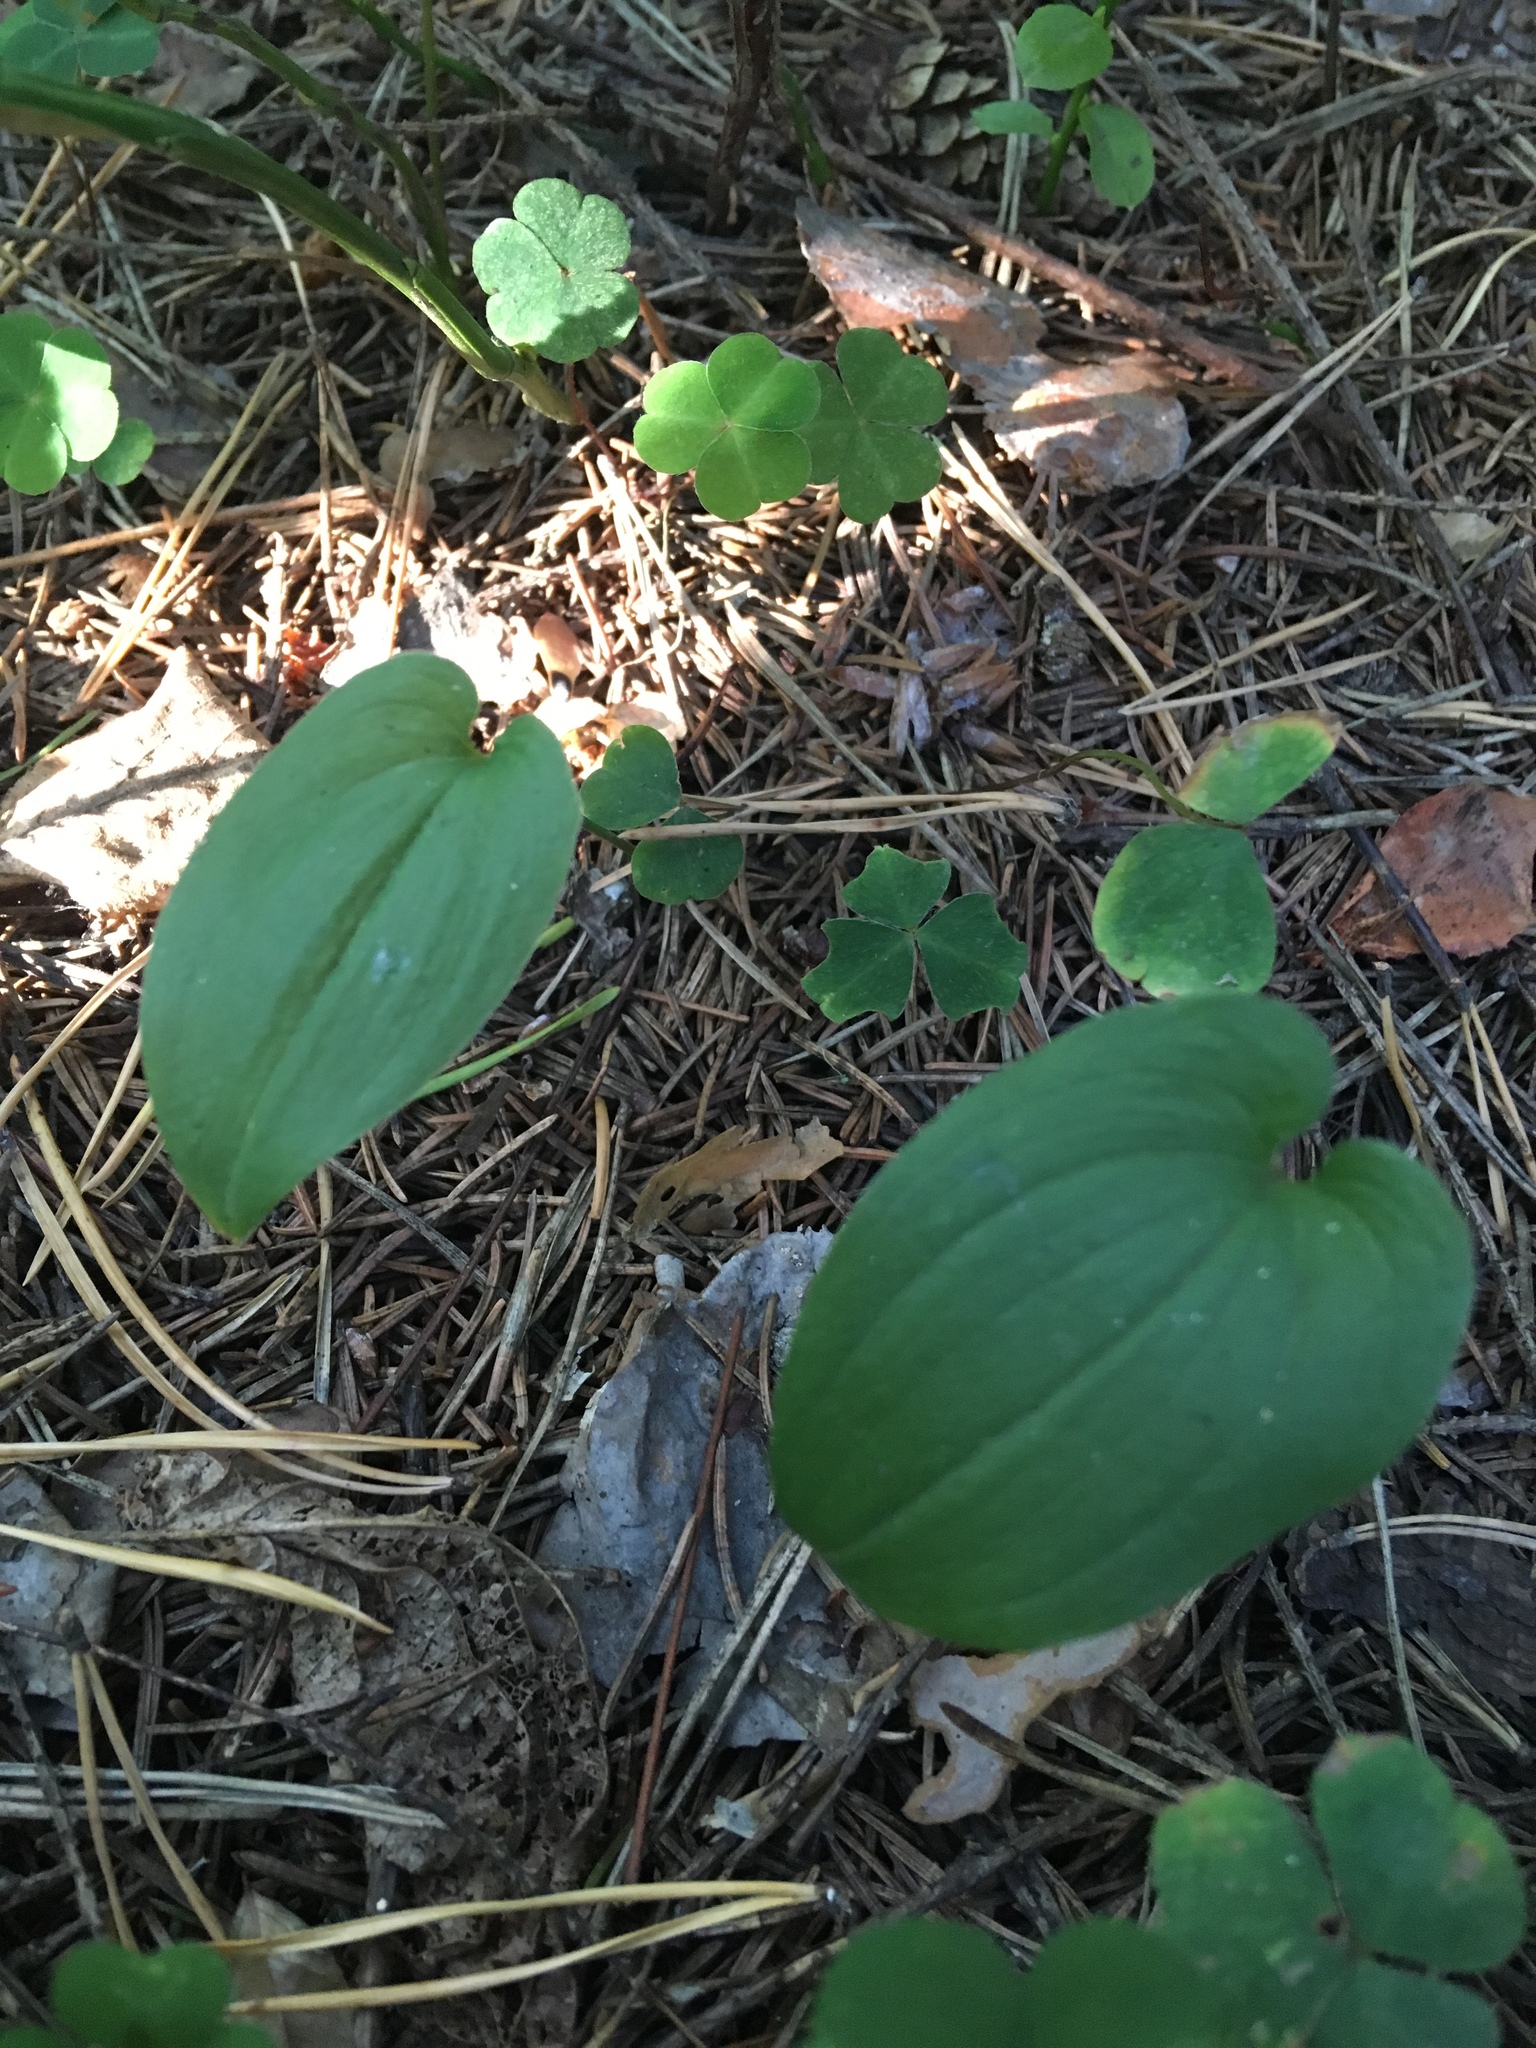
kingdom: Plantae
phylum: Tracheophyta
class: Liliopsida
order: Asparagales
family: Asparagaceae
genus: Maianthemum
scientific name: Maianthemum bifolium
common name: May lily
